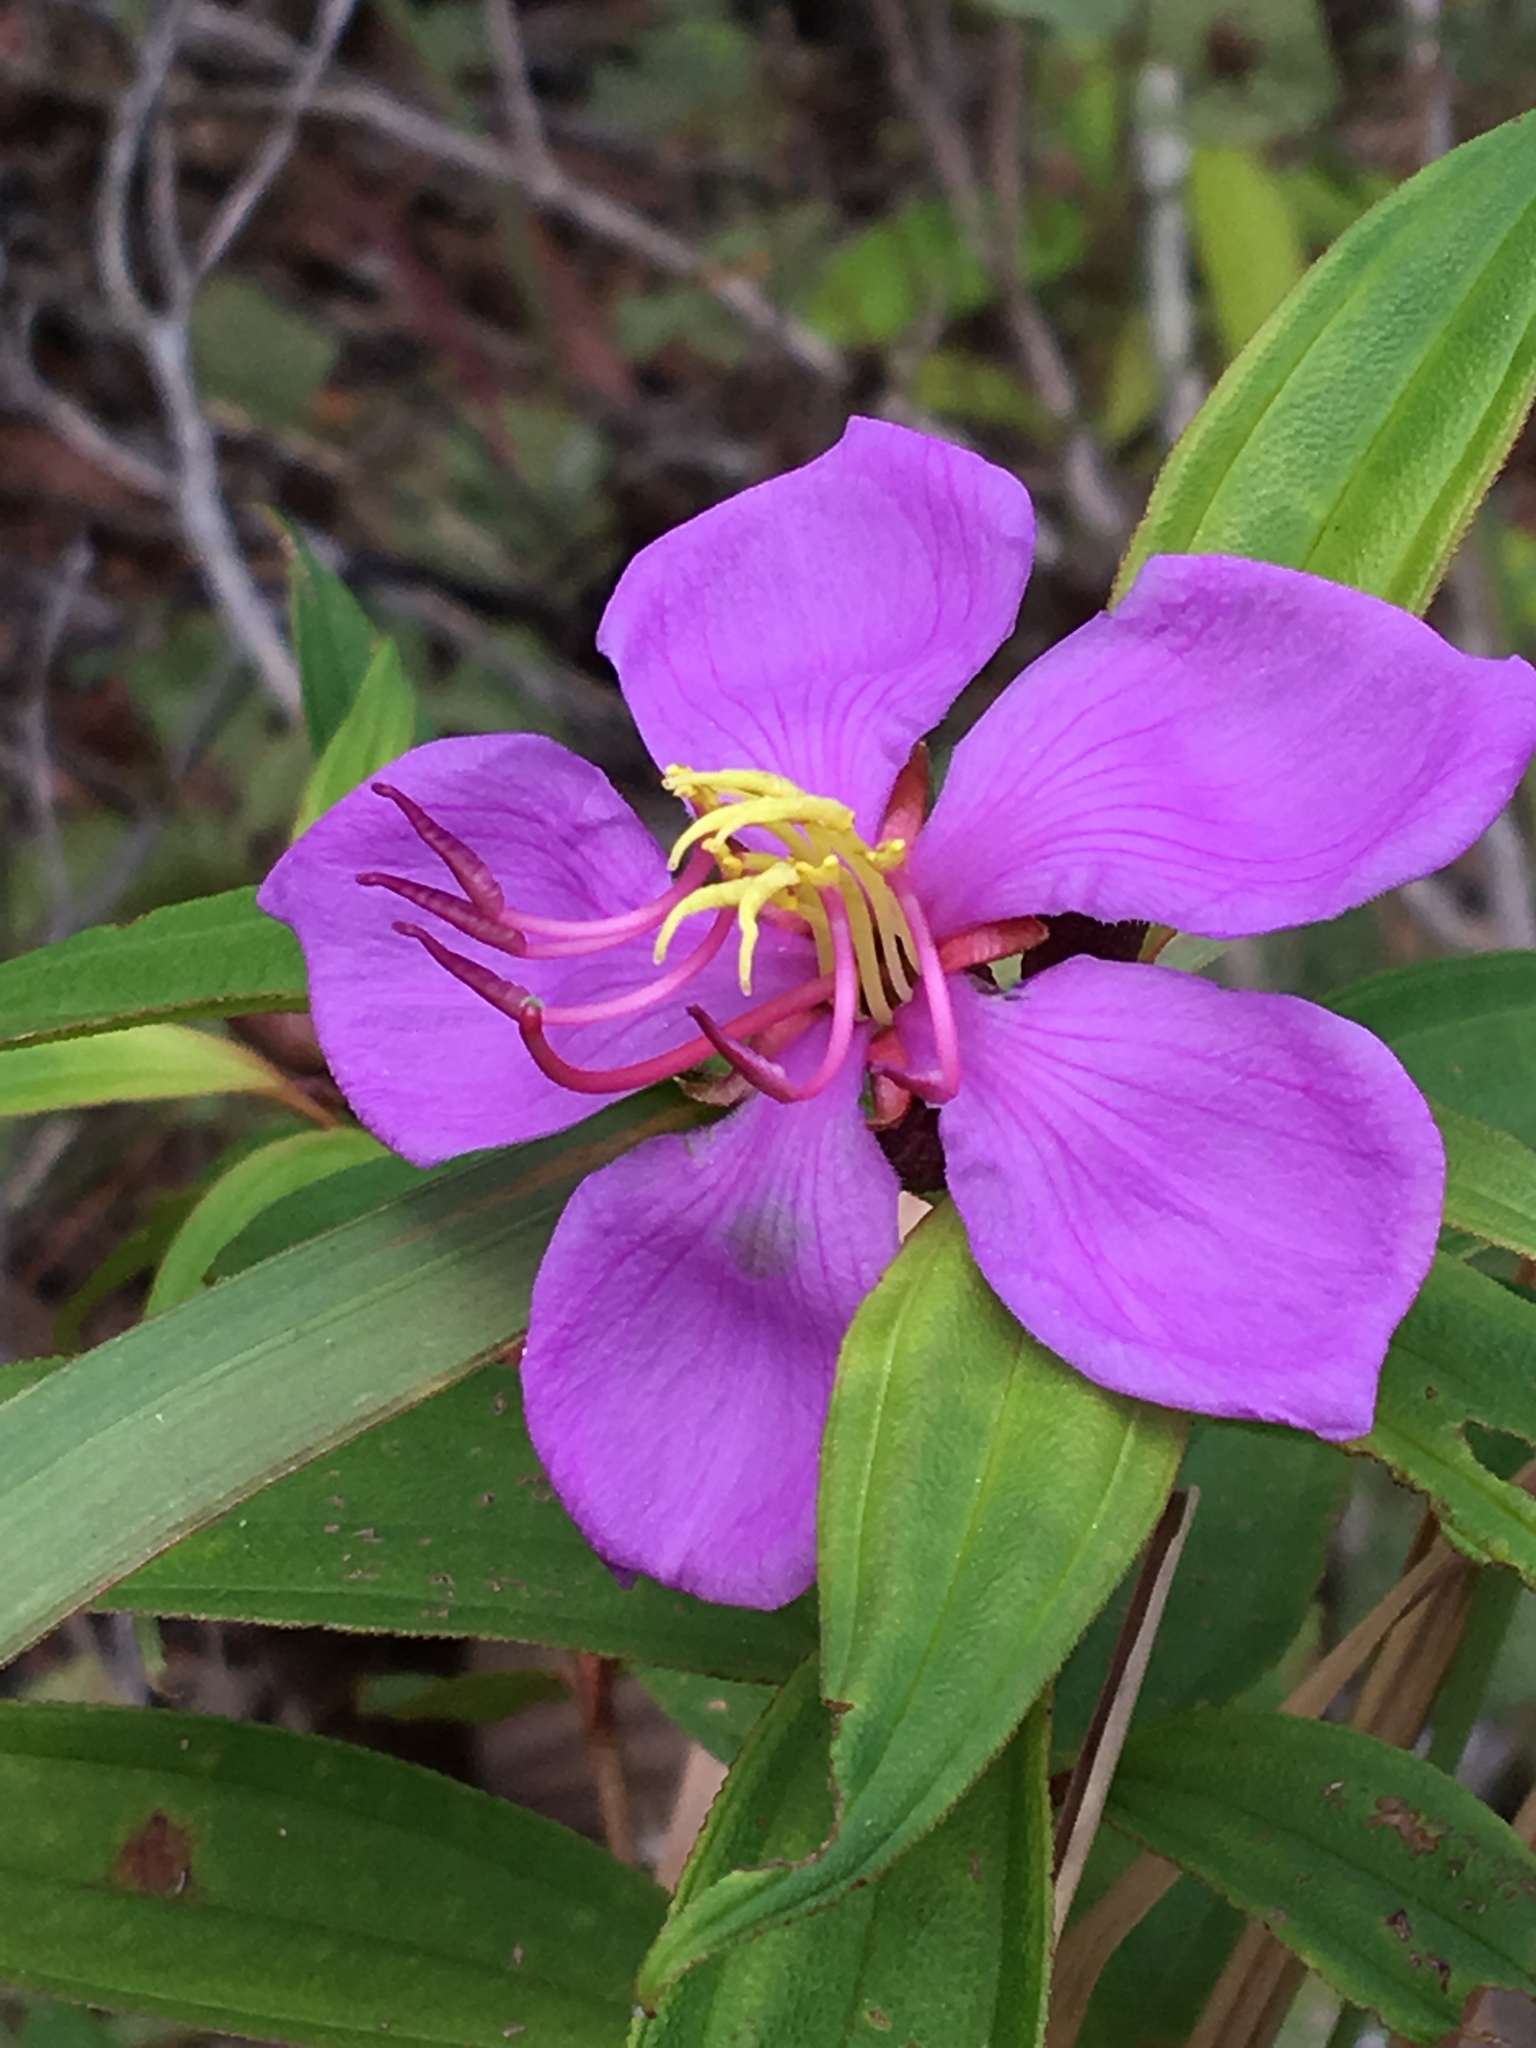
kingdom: Plantae
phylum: Tracheophyta
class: Magnoliopsida
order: Myrtales
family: Melastomataceae
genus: Melastoma
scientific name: Melastoma malabathricum
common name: Indian-rhododendron
